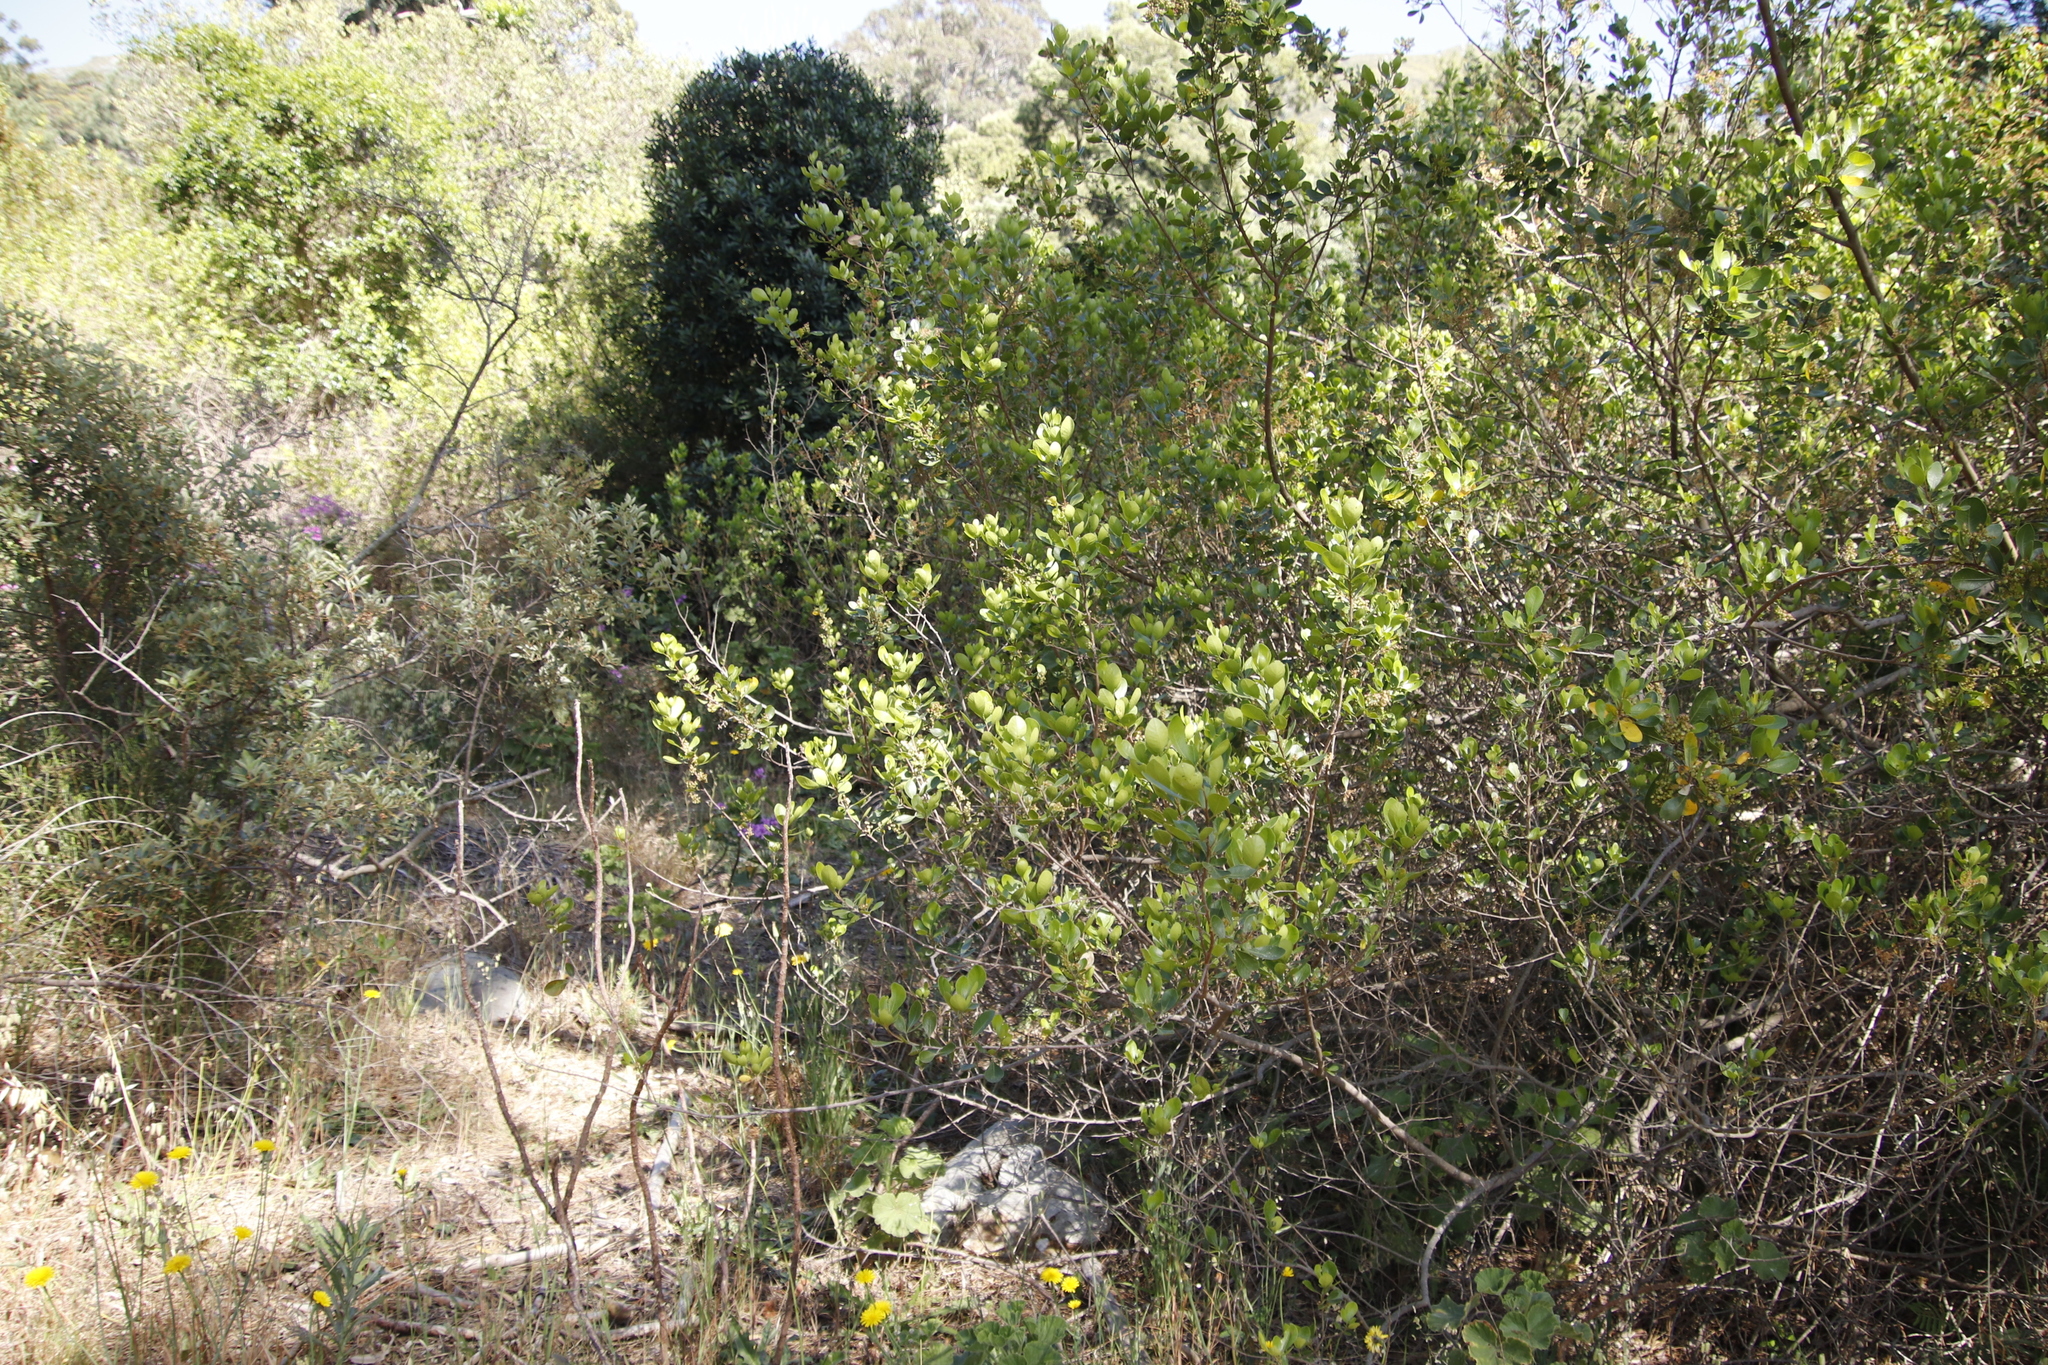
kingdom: Plantae
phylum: Tracheophyta
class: Magnoliopsida
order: Sapindales
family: Anacardiaceae
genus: Searsia
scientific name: Searsia lucida
